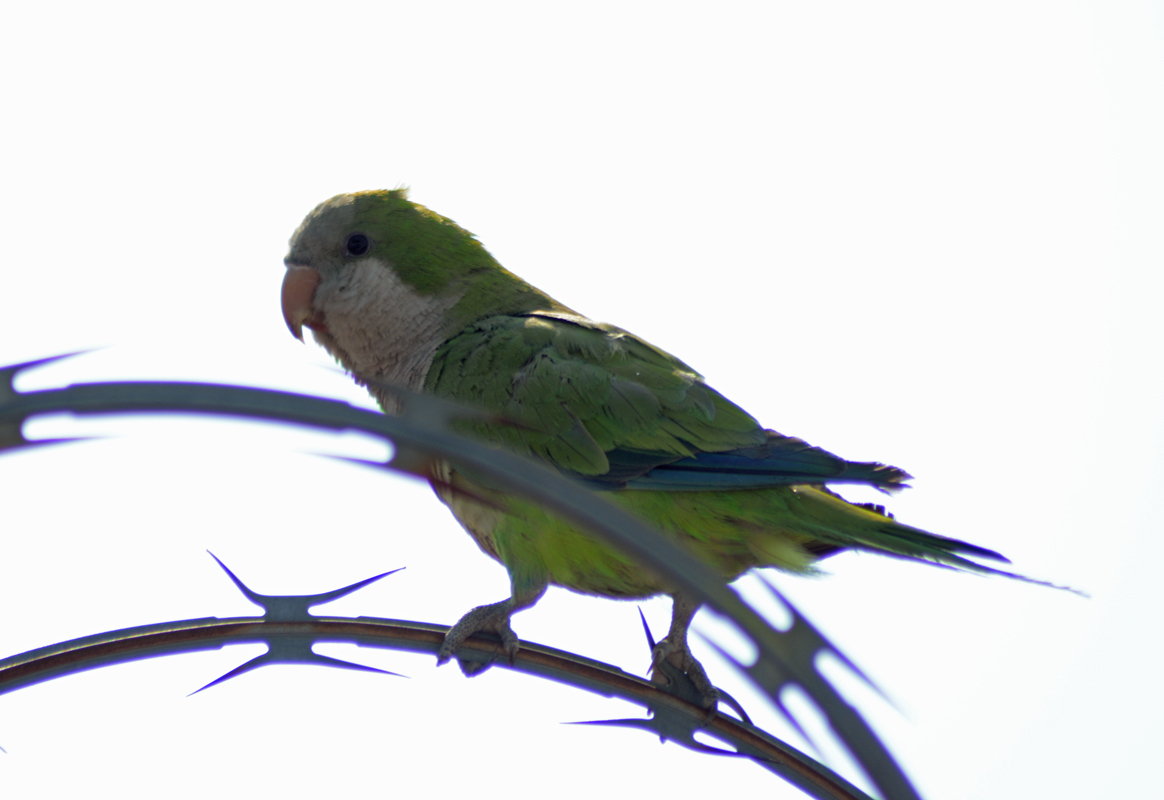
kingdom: Animalia
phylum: Chordata
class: Aves
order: Psittaciformes
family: Psittacidae
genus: Myiopsitta
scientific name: Myiopsitta monachus
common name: Monk parakeet
